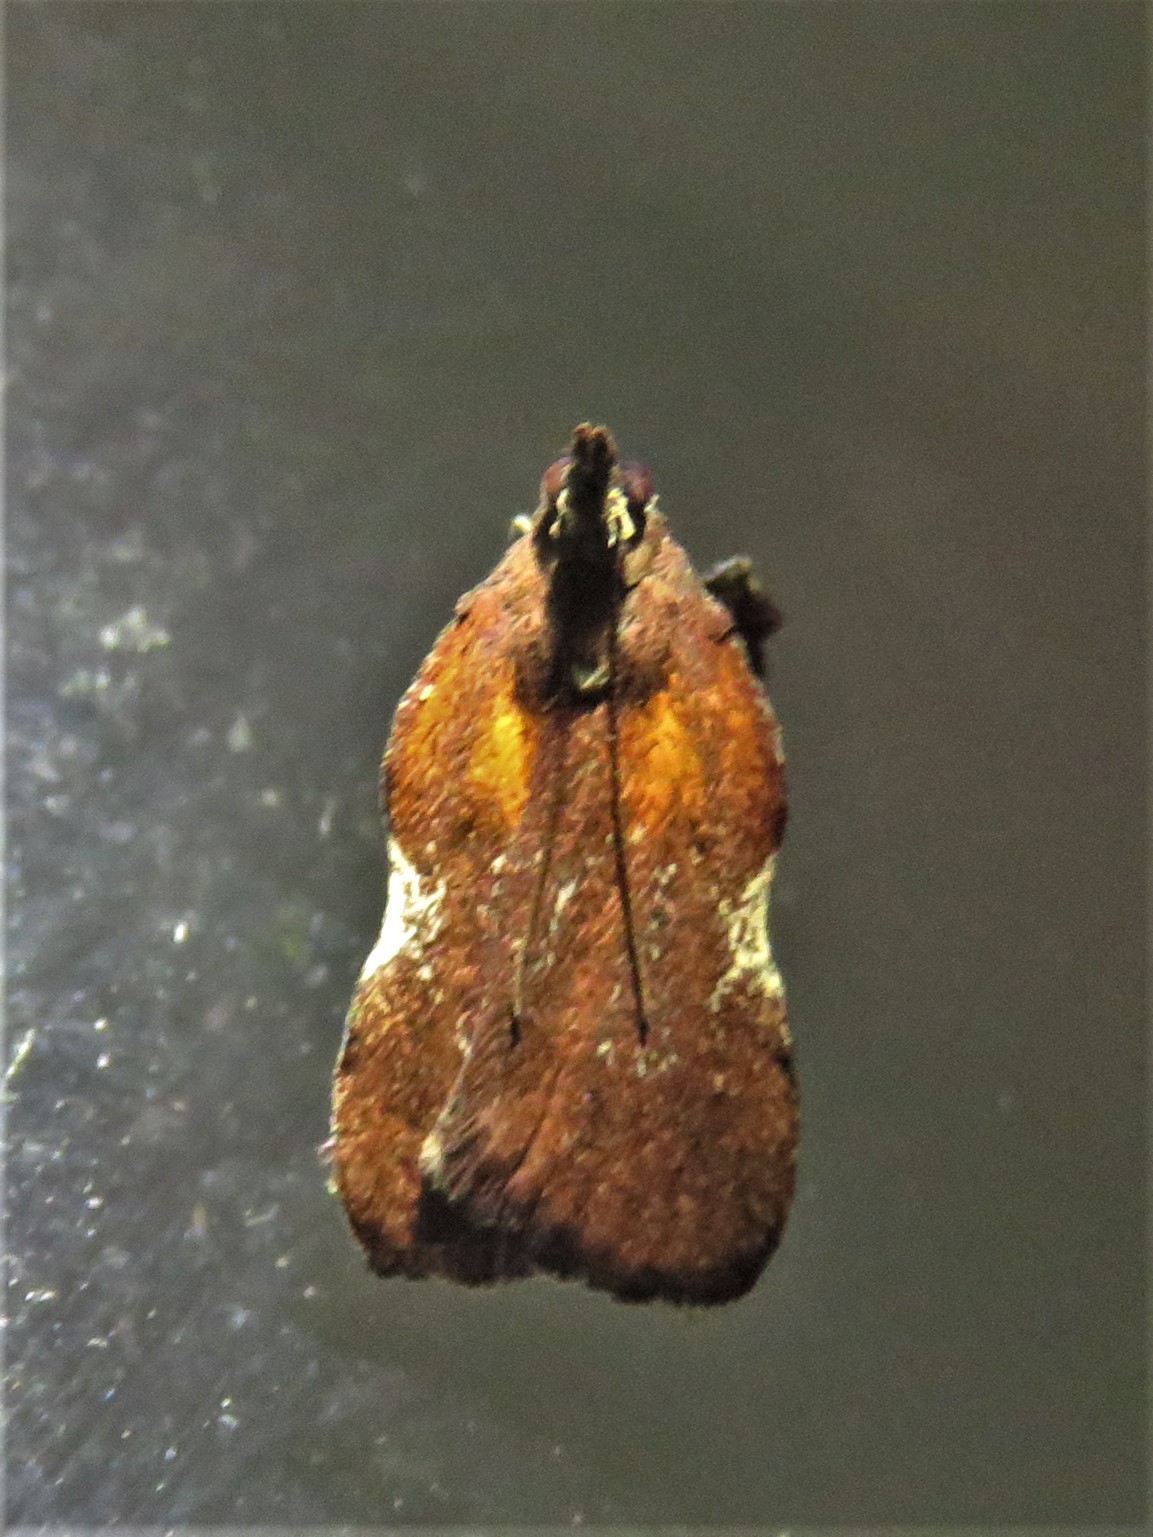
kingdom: Animalia
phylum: Arthropoda
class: Insecta
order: Lepidoptera
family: Pyralidae
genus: Galasa
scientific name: Galasa nigrinodis
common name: Boxwood leaftier moth
